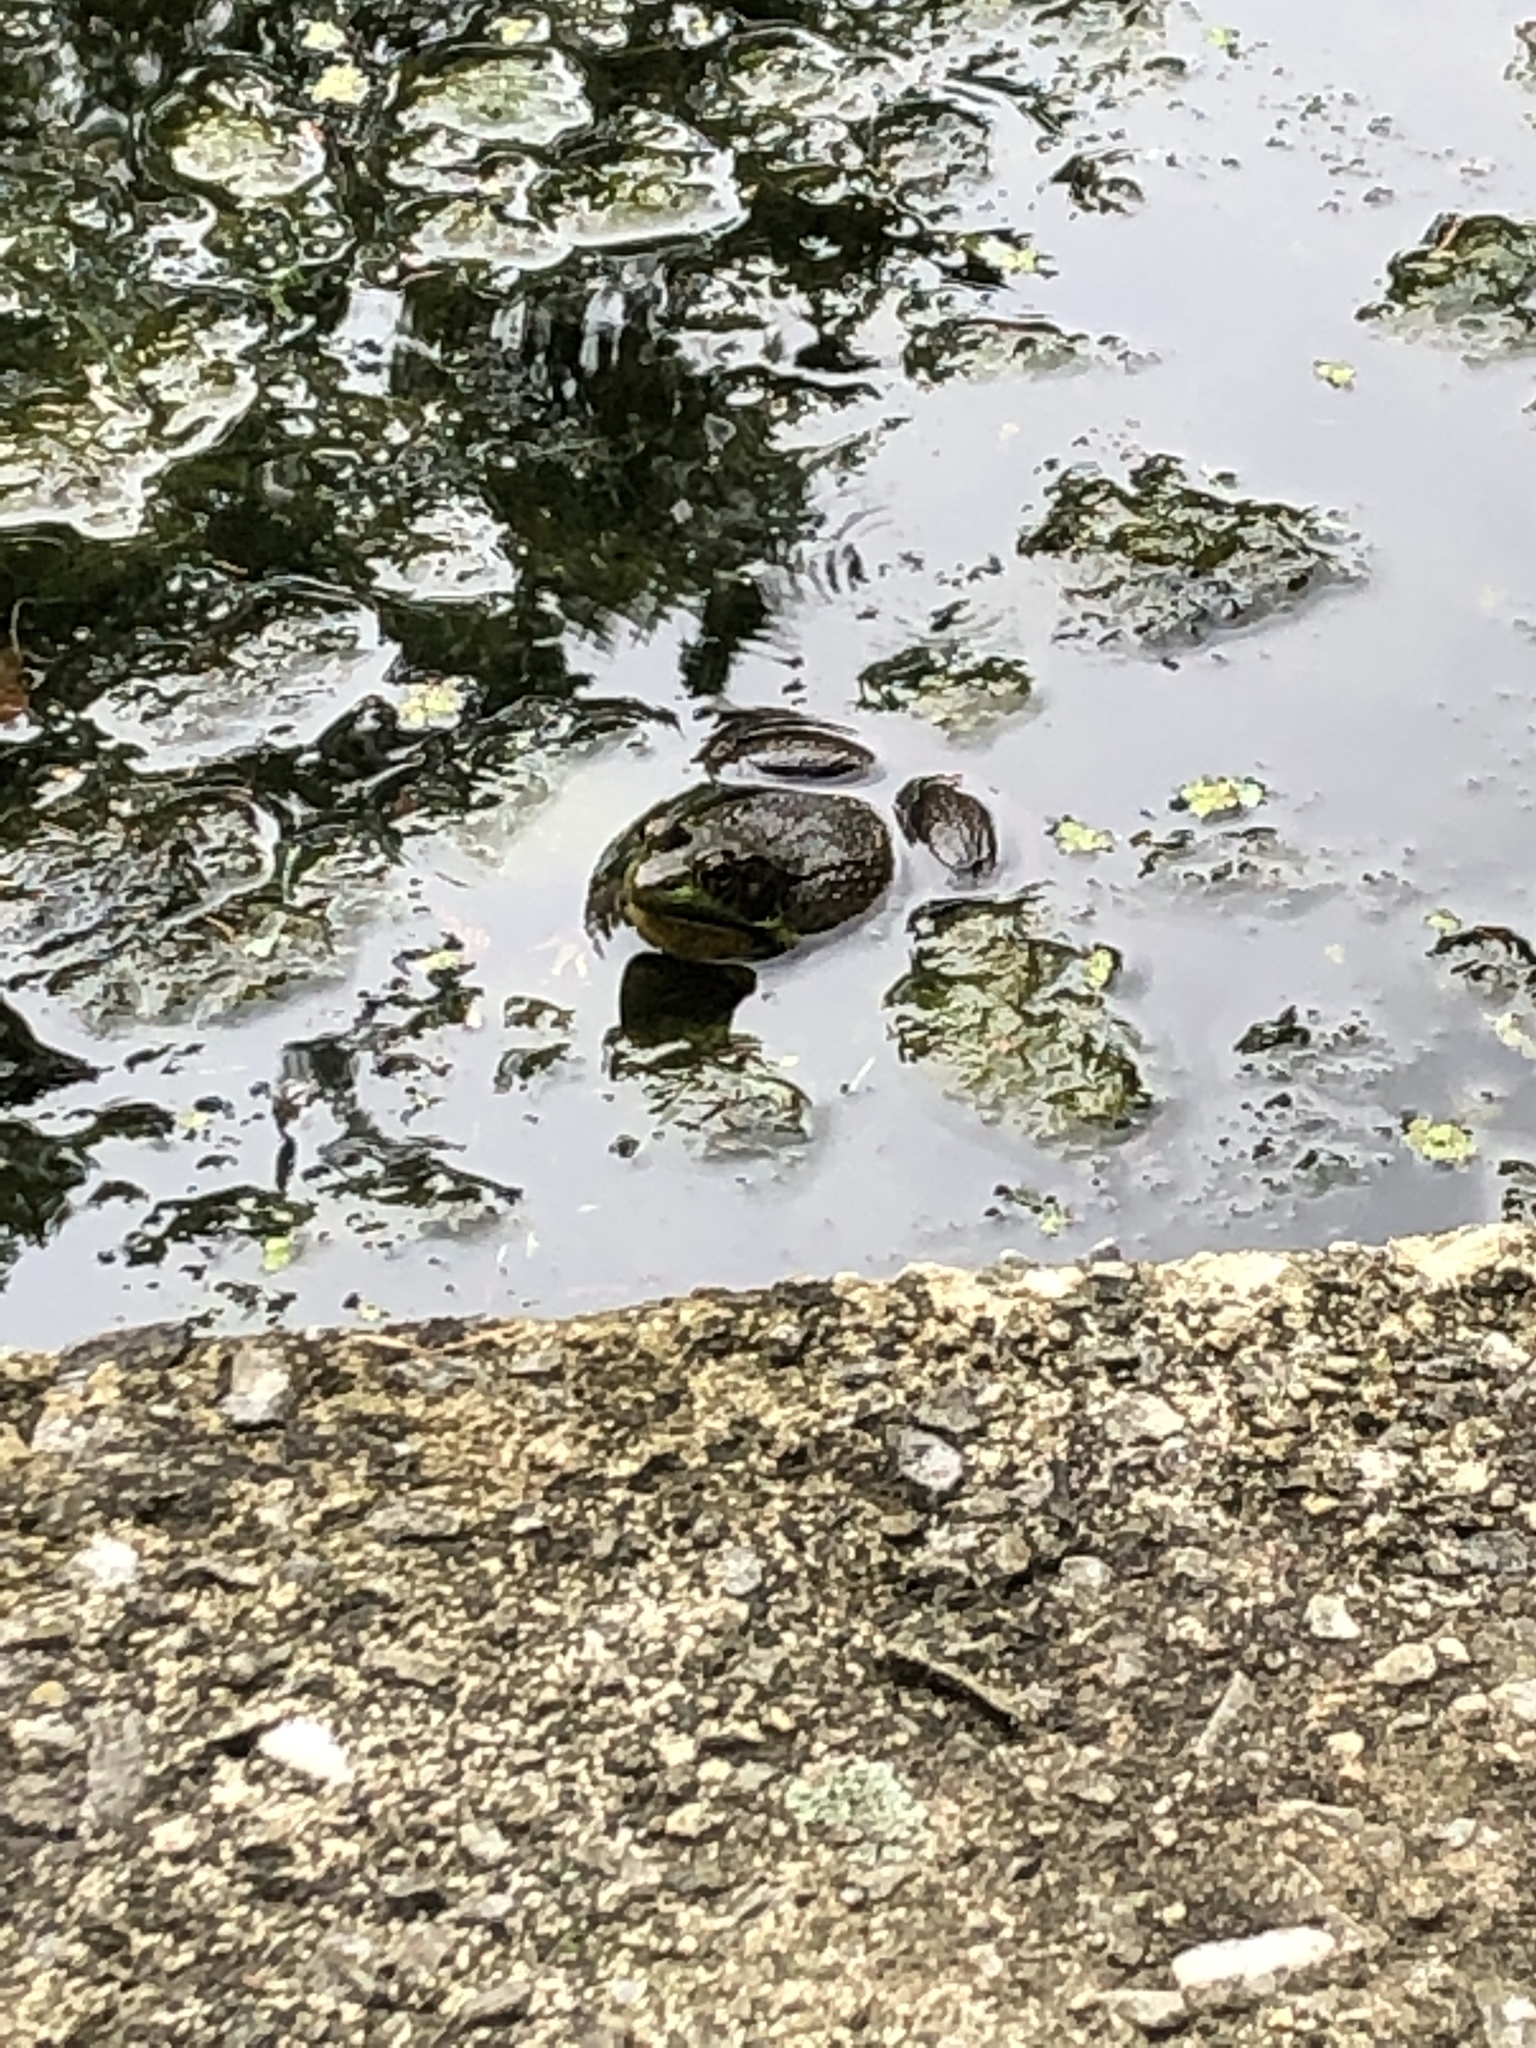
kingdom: Animalia
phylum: Chordata
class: Amphibia
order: Anura
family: Ranidae
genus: Lithobates
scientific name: Lithobates clamitans
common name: Green frog
